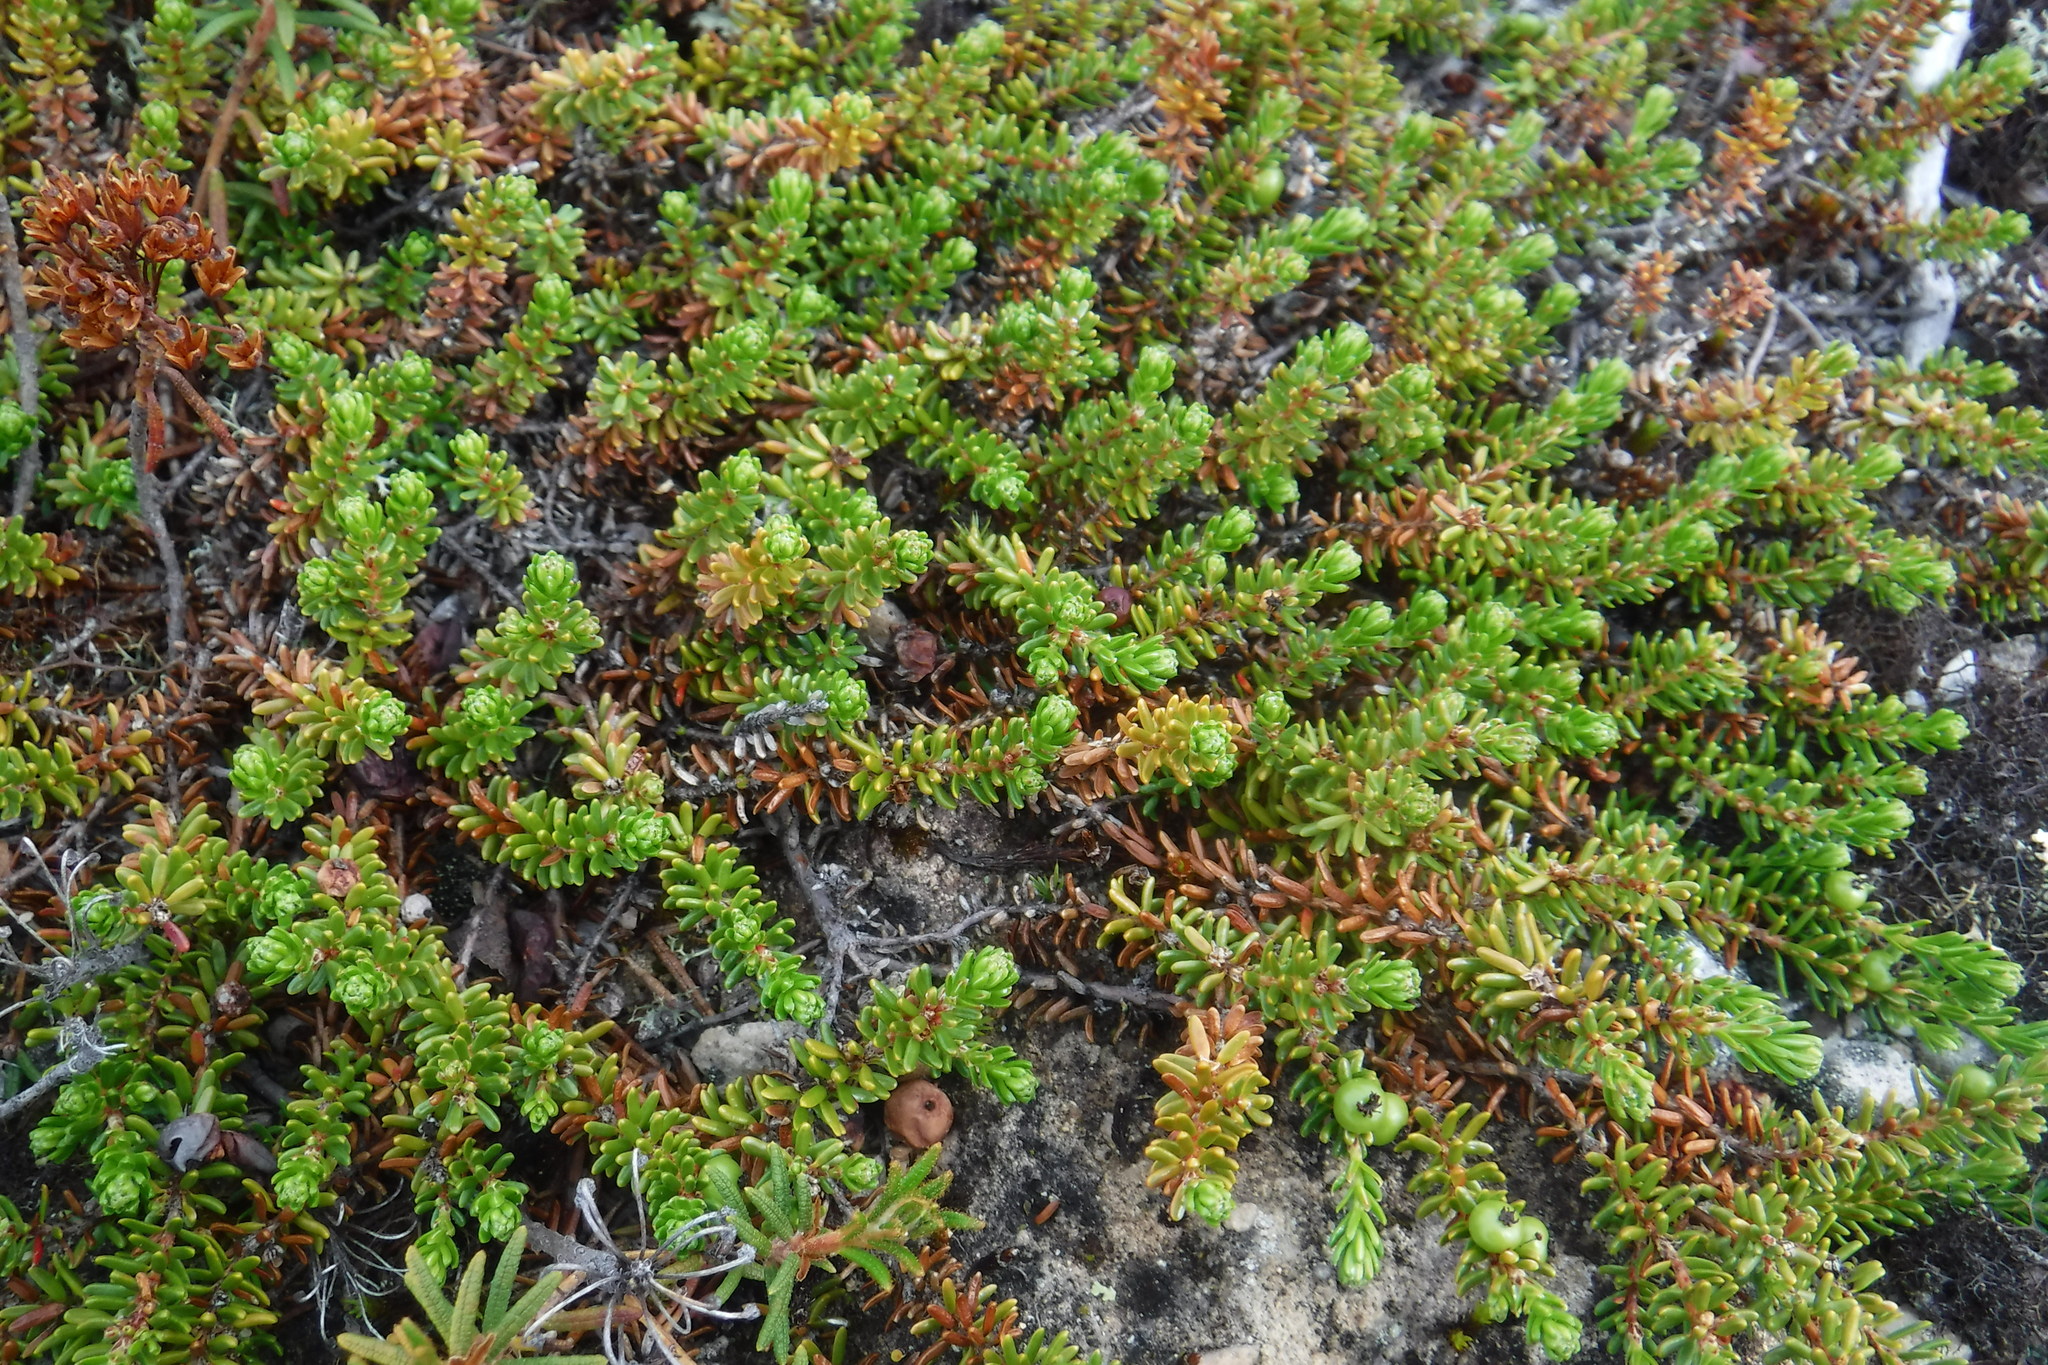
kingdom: Plantae
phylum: Tracheophyta
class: Magnoliopsida
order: Ericales
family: Ericaceae
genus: Empetrum
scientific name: Empetrum nigrum
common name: Black crowberry
